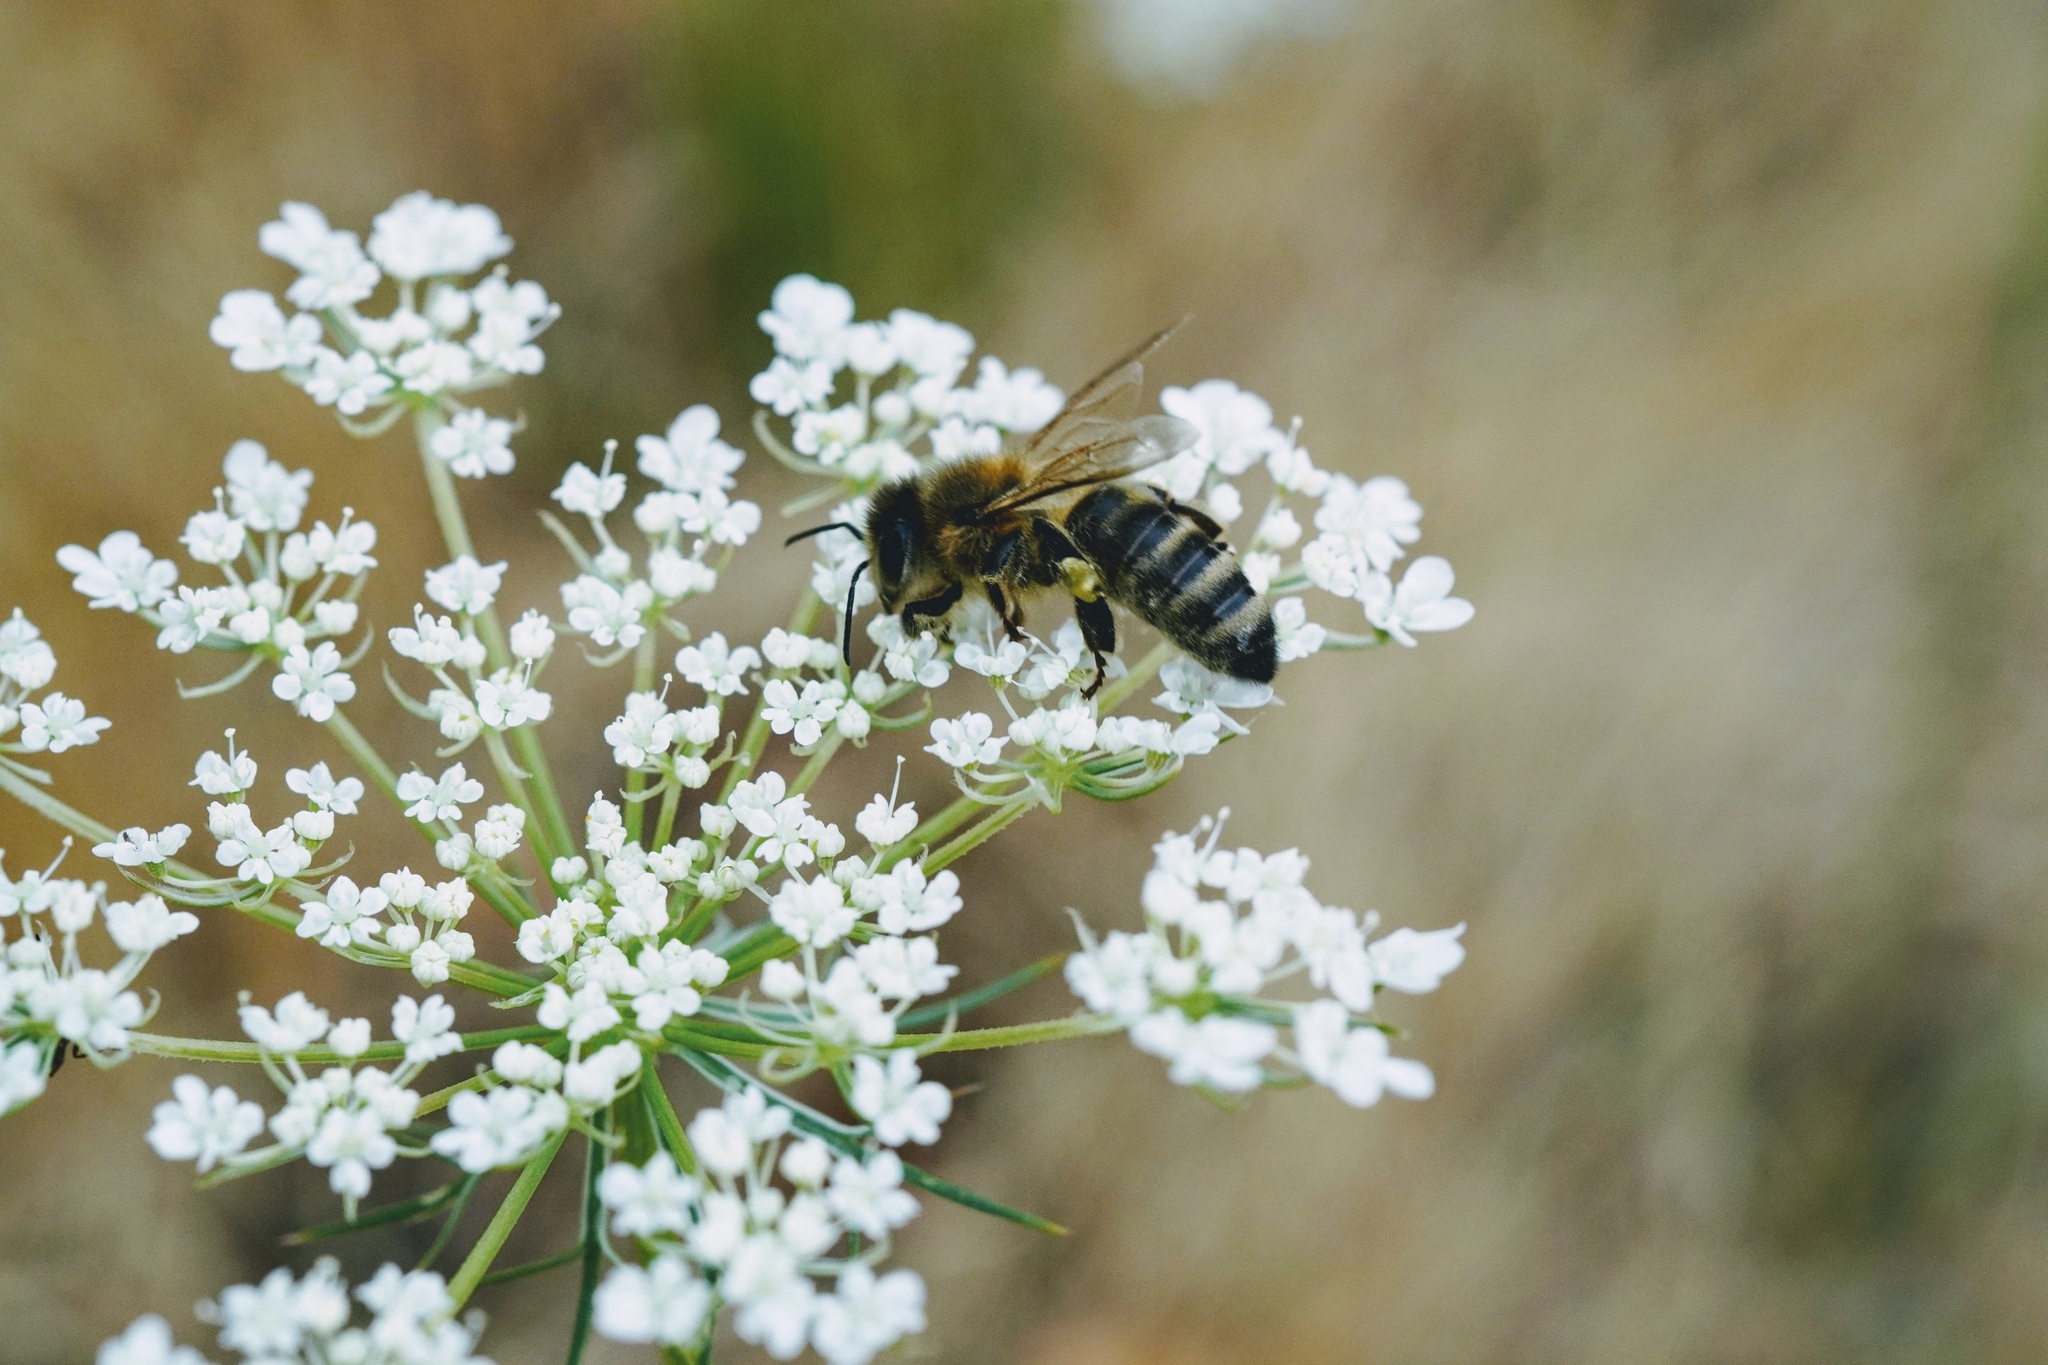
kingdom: Animalia
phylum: Arthropoda
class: Insecta
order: Hymenoptera
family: Apidae
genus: Apis
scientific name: Apis mellifera
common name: Honey bee
